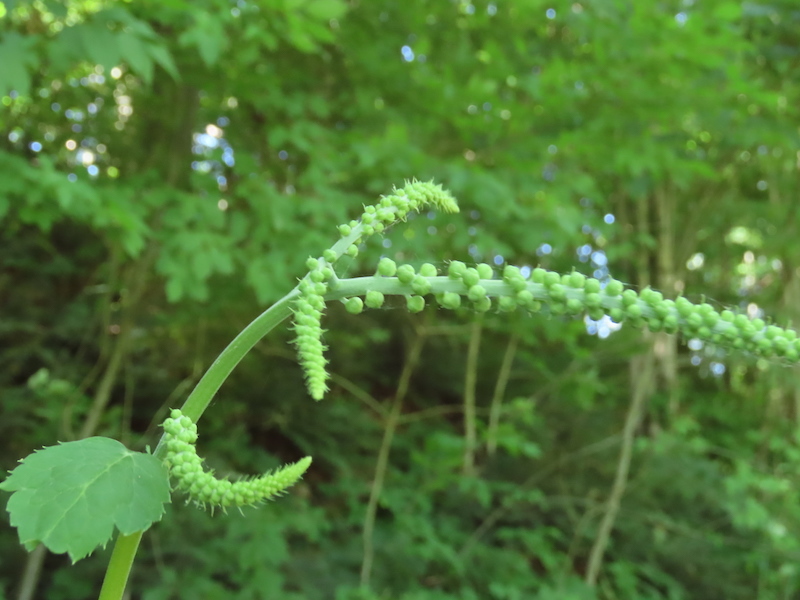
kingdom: Plantae
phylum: Tracheophyta
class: Magnoliopsida
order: Ranunculales
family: Ranunculaceae
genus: Actaea
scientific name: Actaea racemosa
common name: Black cohosh
